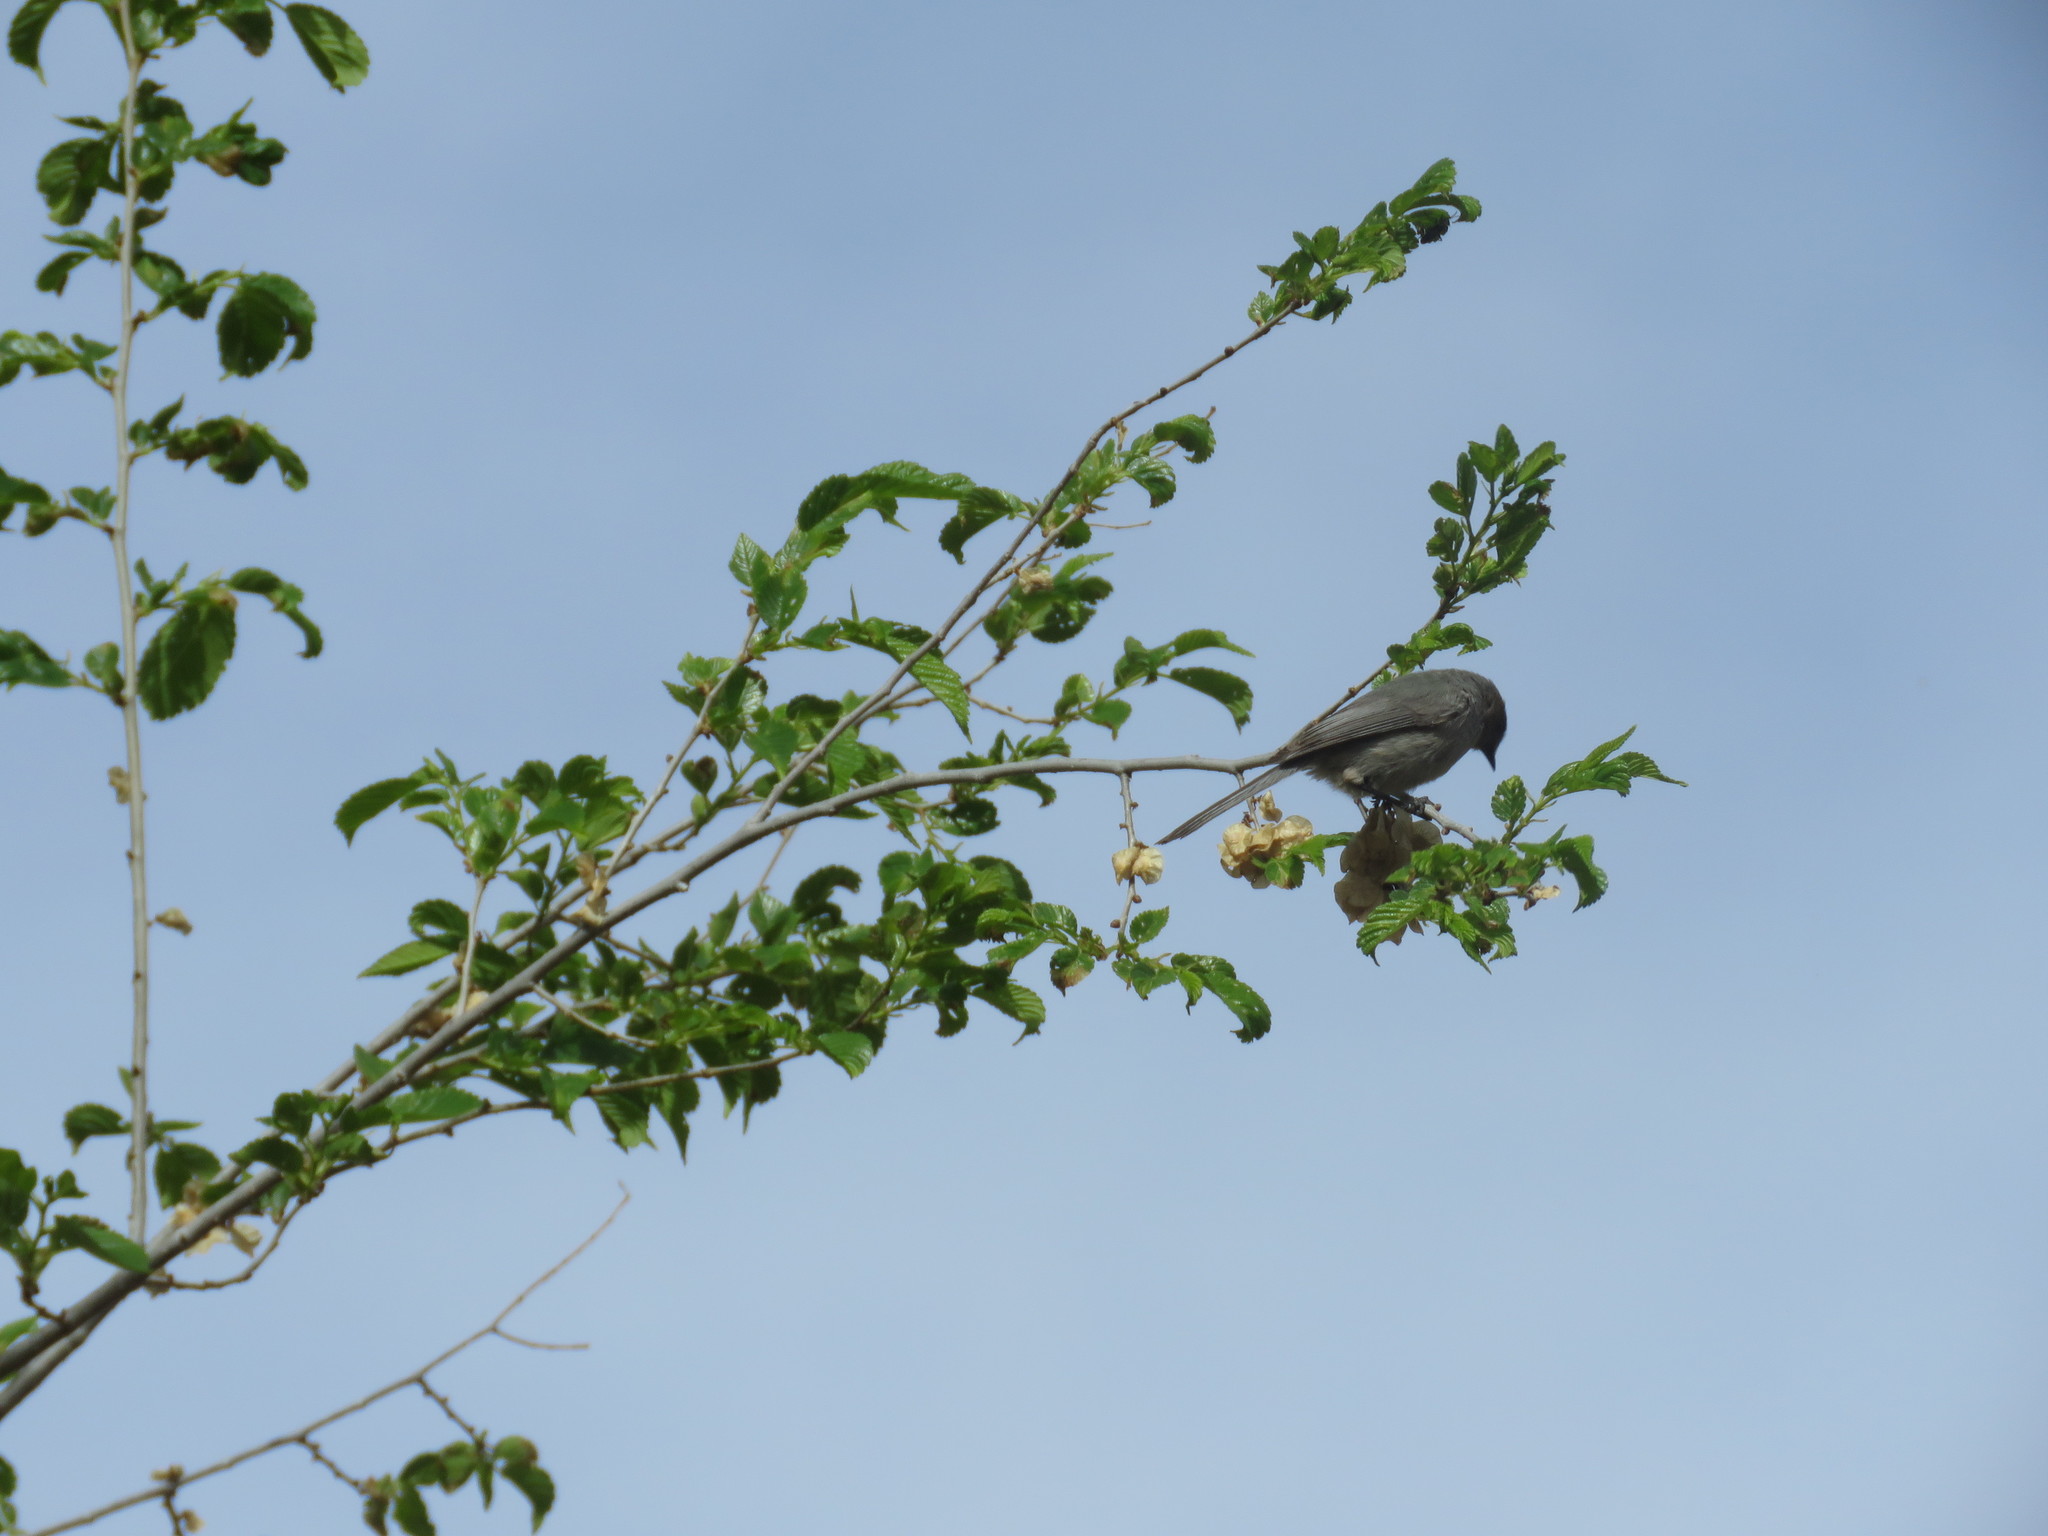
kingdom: Animalia
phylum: Chordata
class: Aves
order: Passeriformes
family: Aegithalidae
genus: Psaltriparus
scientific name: Psaltriparus minimus
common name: American bushtit
